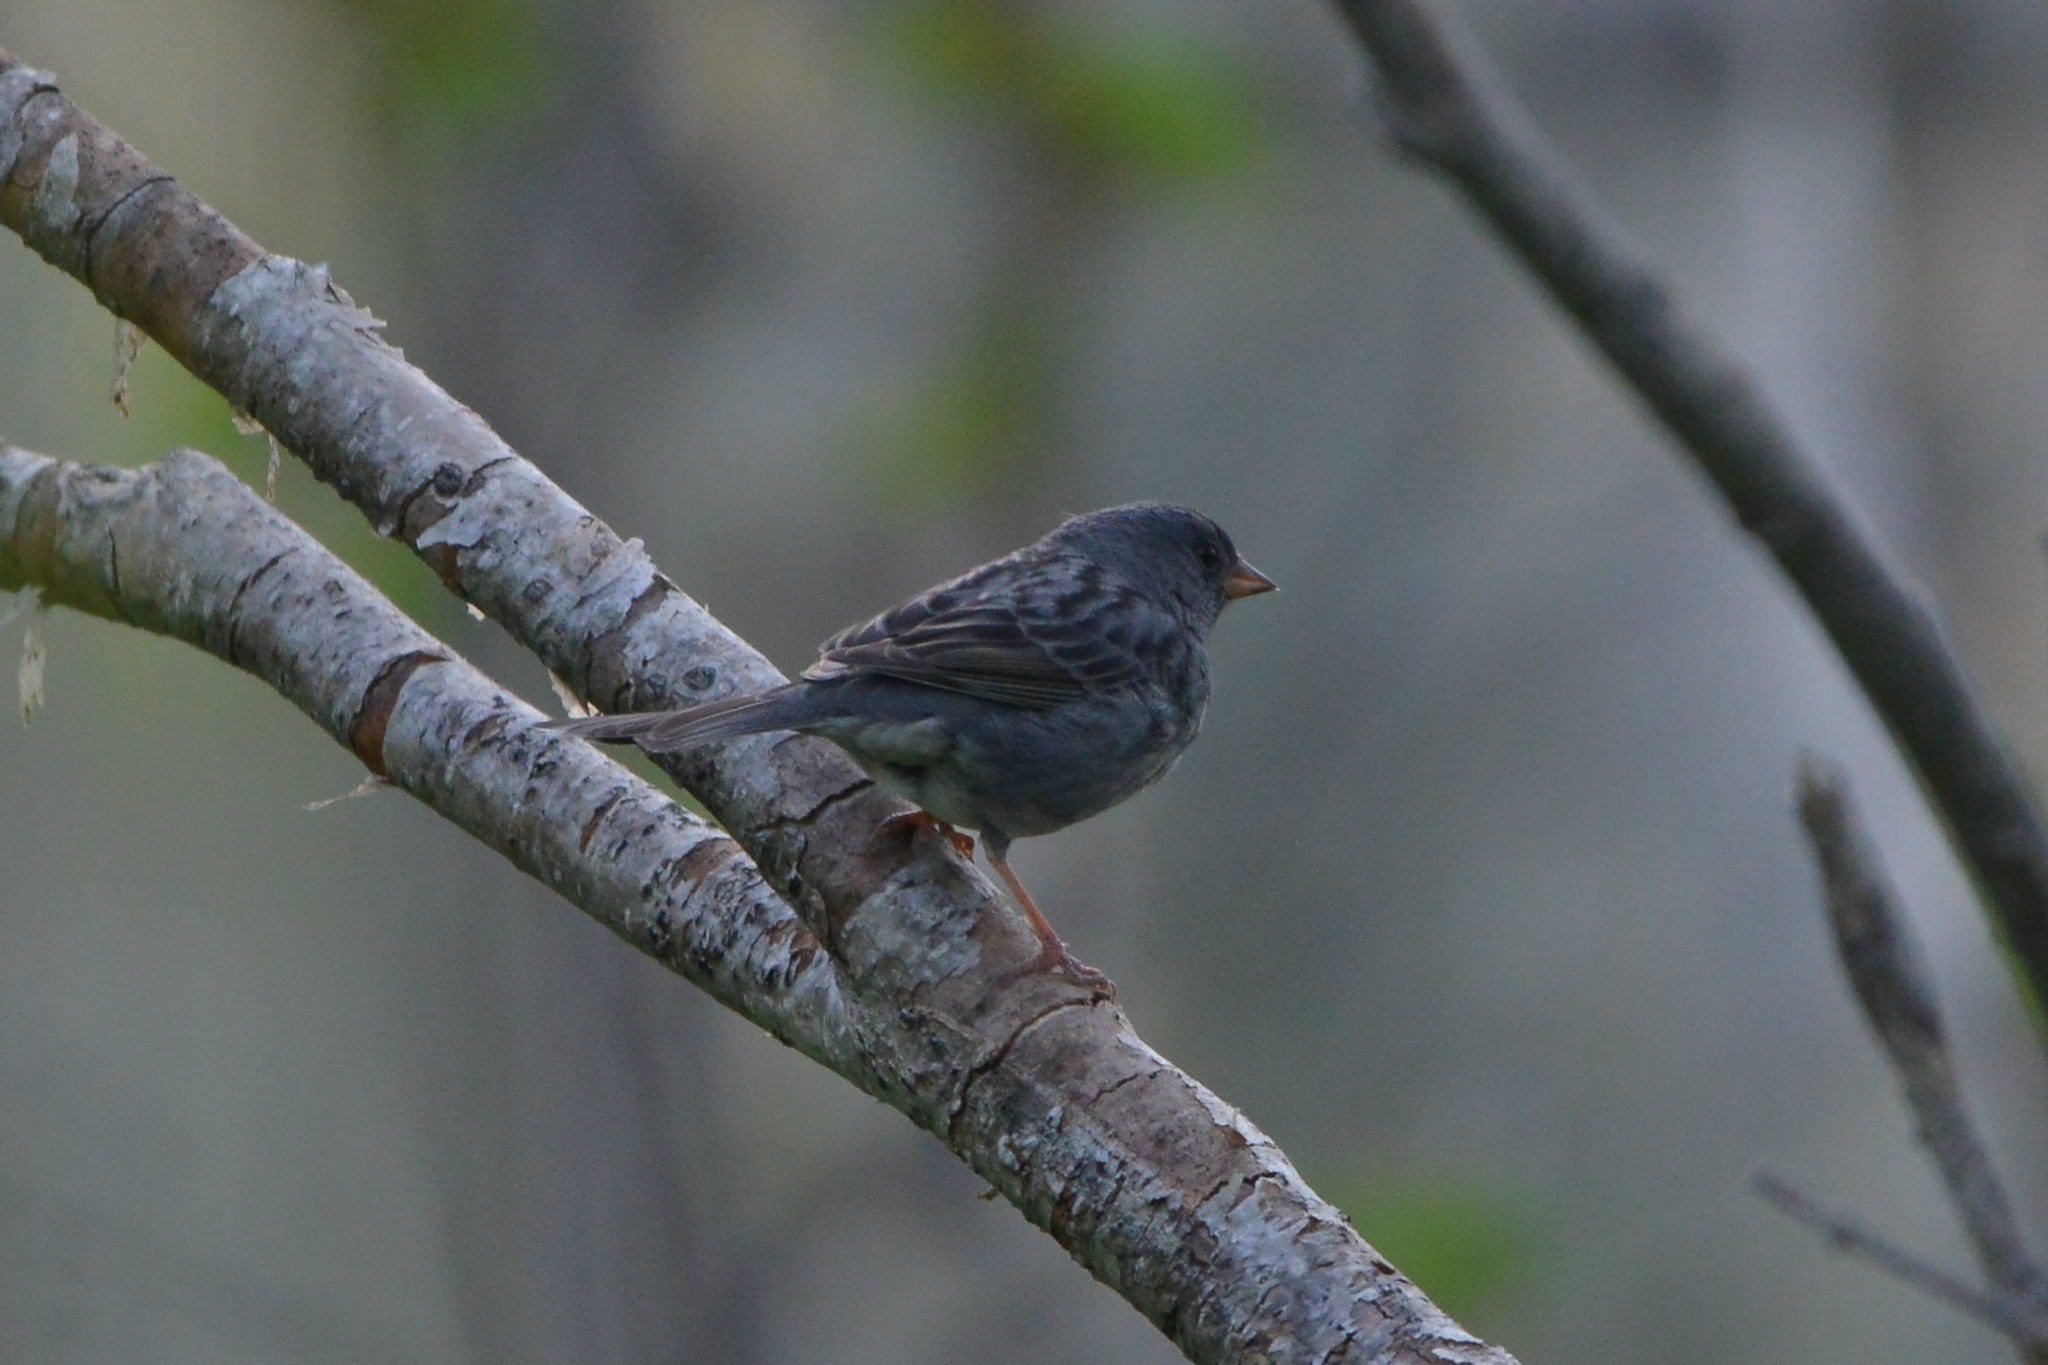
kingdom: Animalia
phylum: Chordata
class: Aves
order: Passeriformes
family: Emberizidae
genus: Emberiza
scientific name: Emberiza variabilis
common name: Gray bunting
